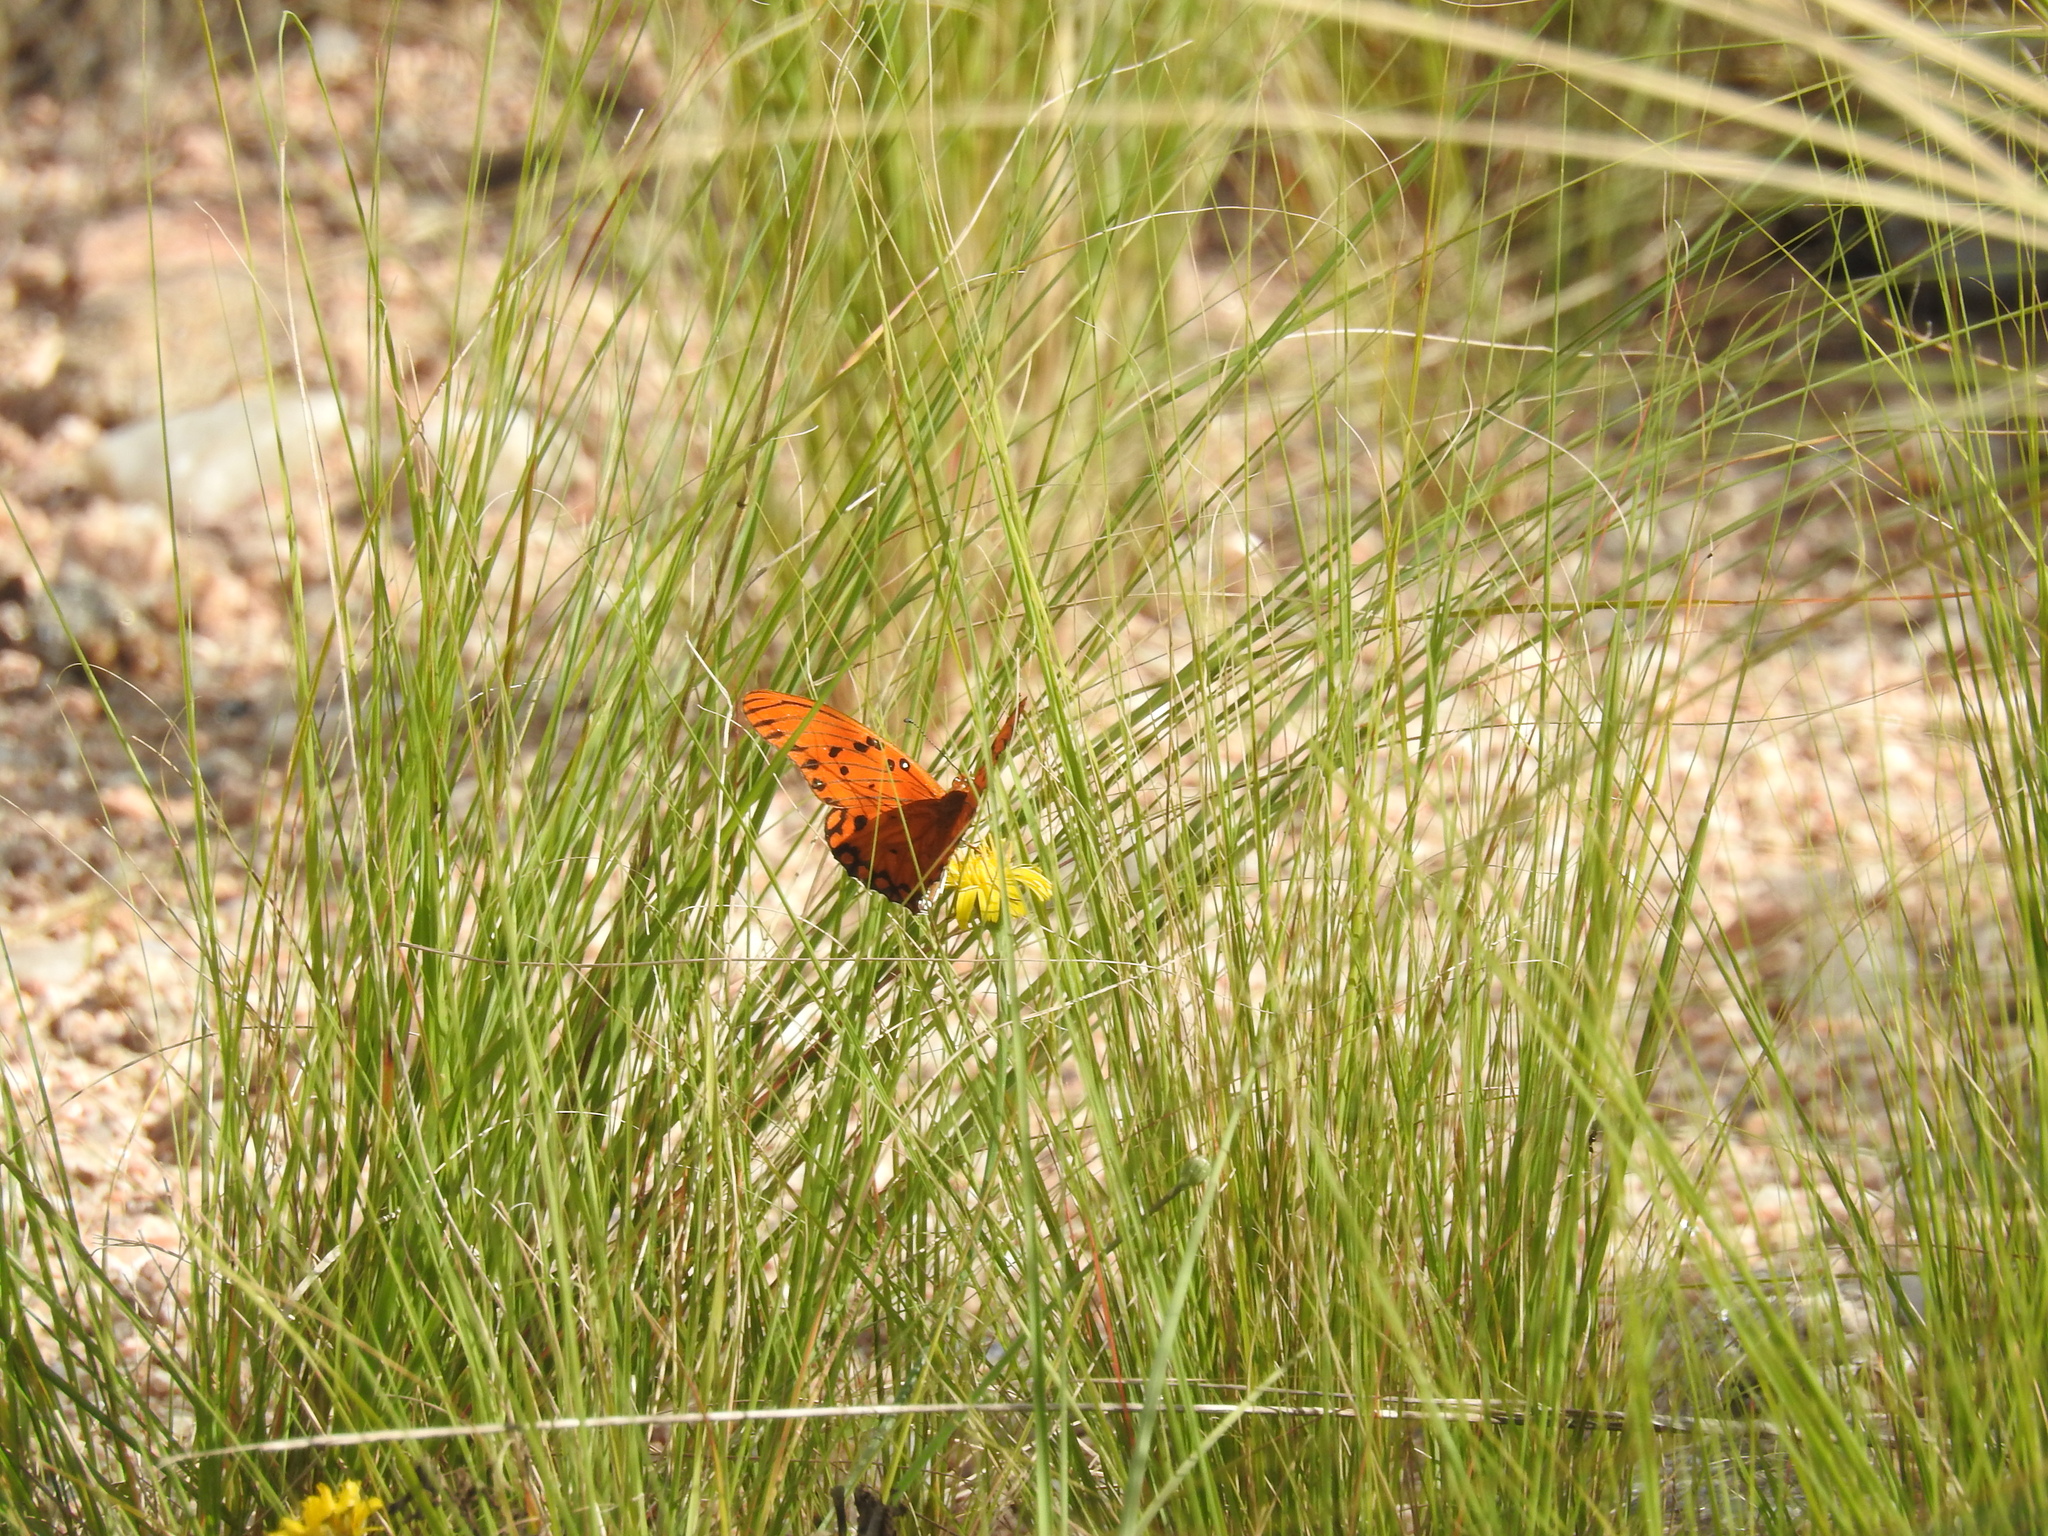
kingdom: Animalia
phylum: Arthropoda
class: Insecta
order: Lepidoptera
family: Nymphalidae
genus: Dione
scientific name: Dione vanillae
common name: Gulf fritillary
